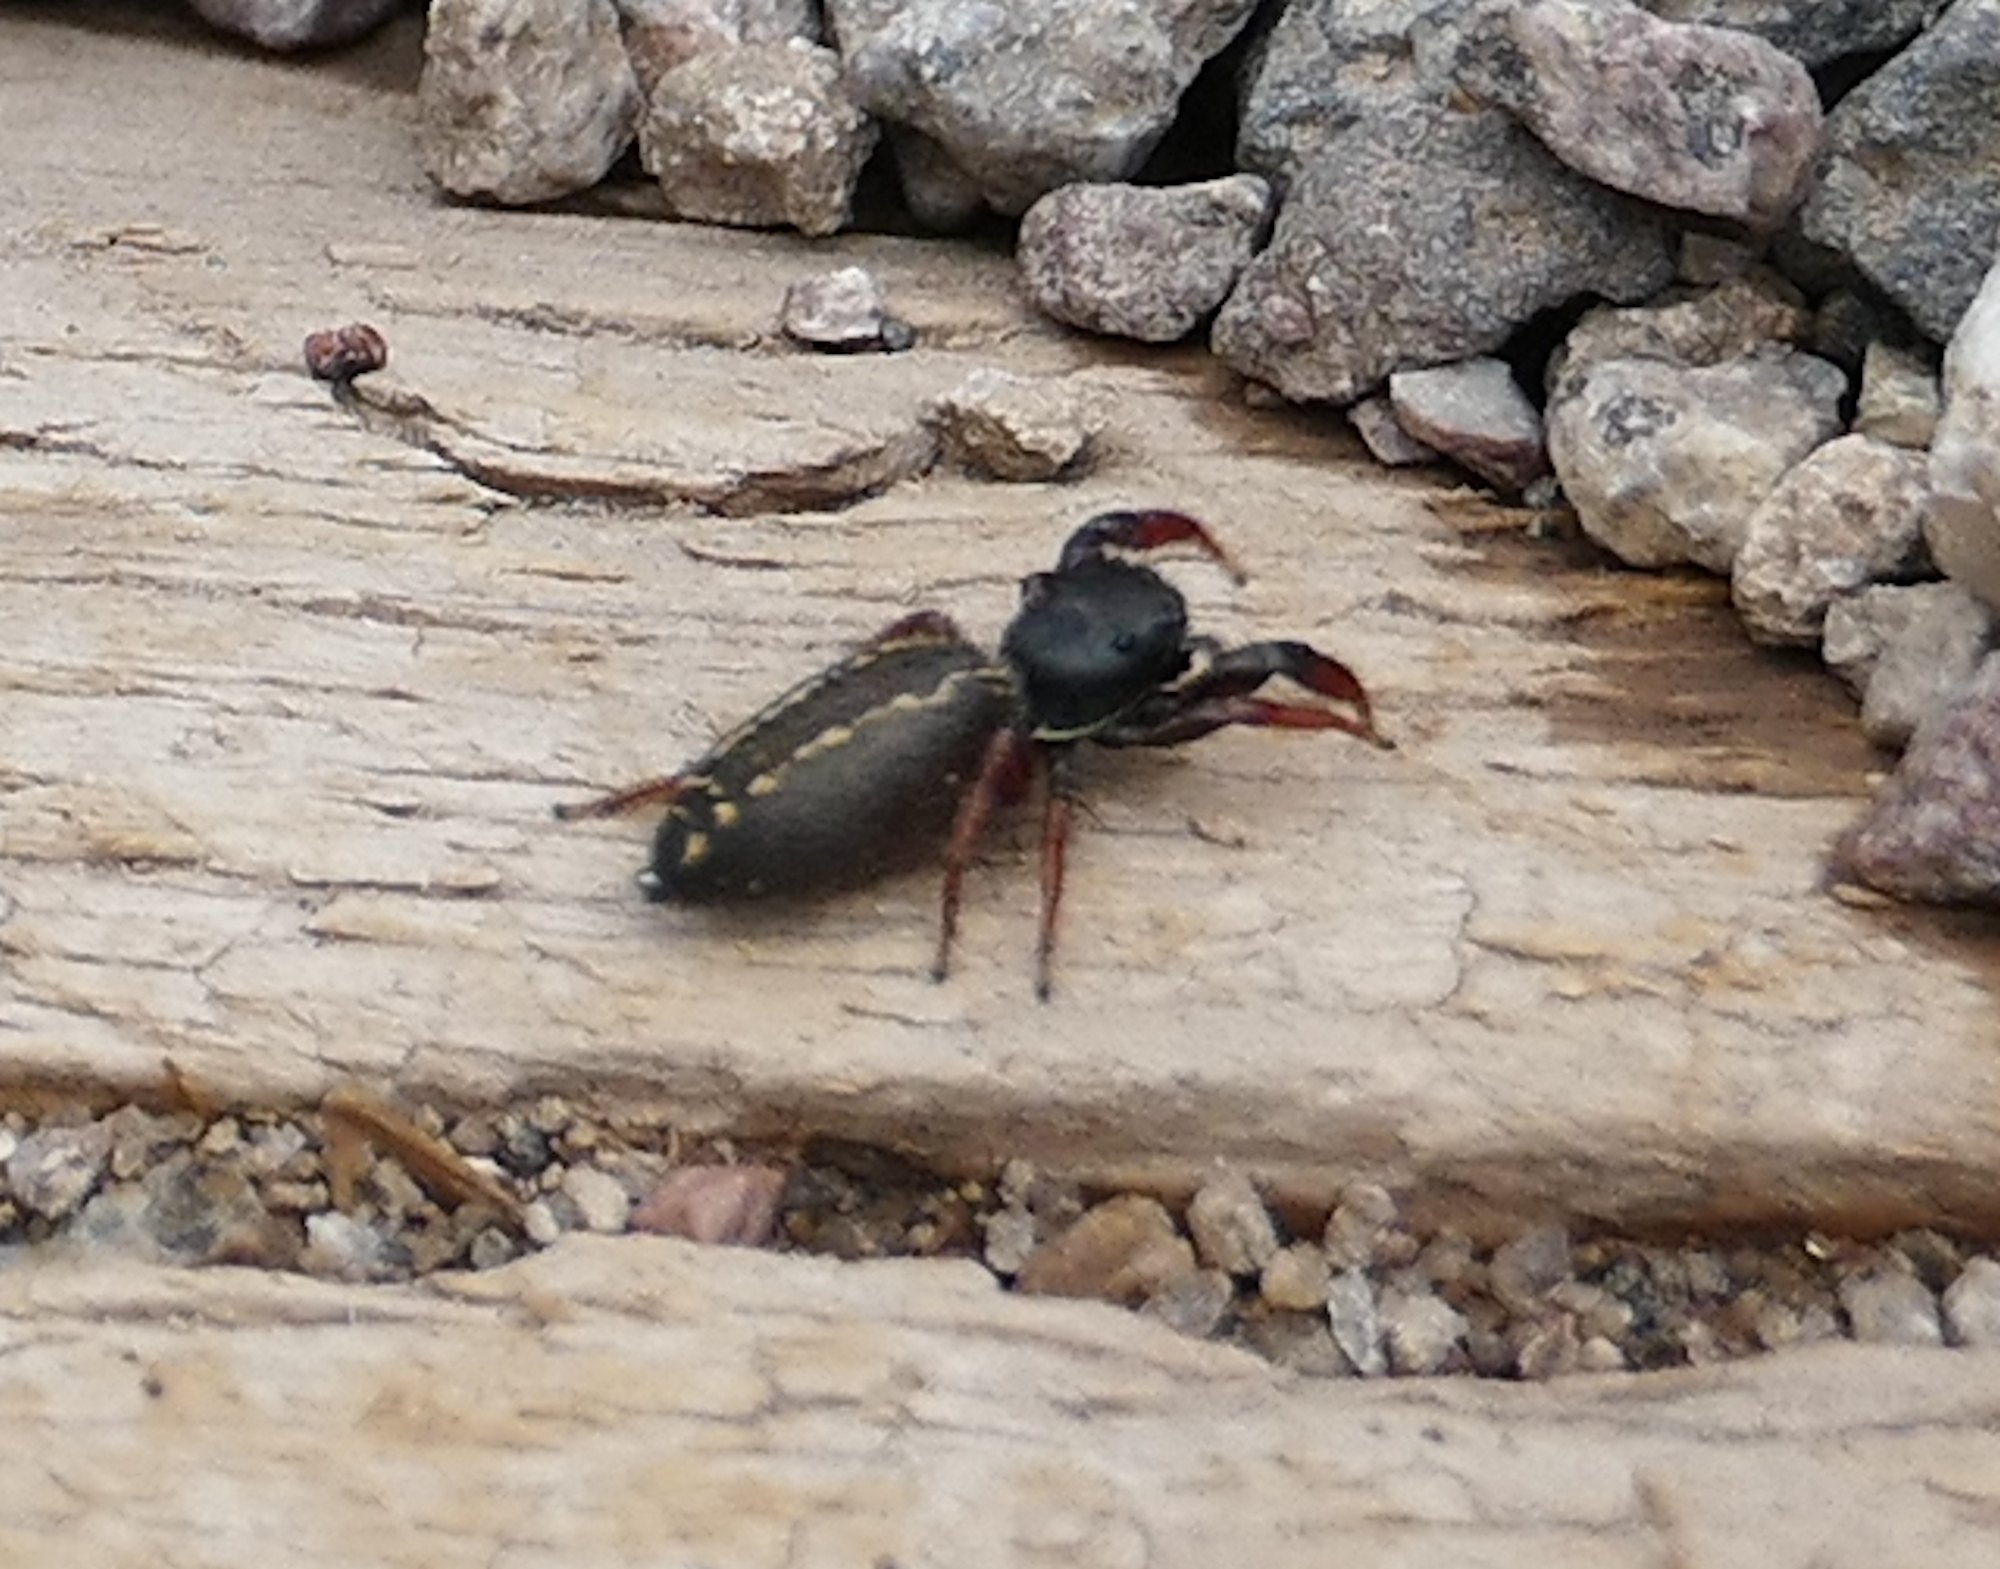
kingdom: Animalia
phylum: Arthropoda
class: Arachnida
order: Araneae
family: Salticidae
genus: Metacyrba
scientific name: Metacyrba taeniola
